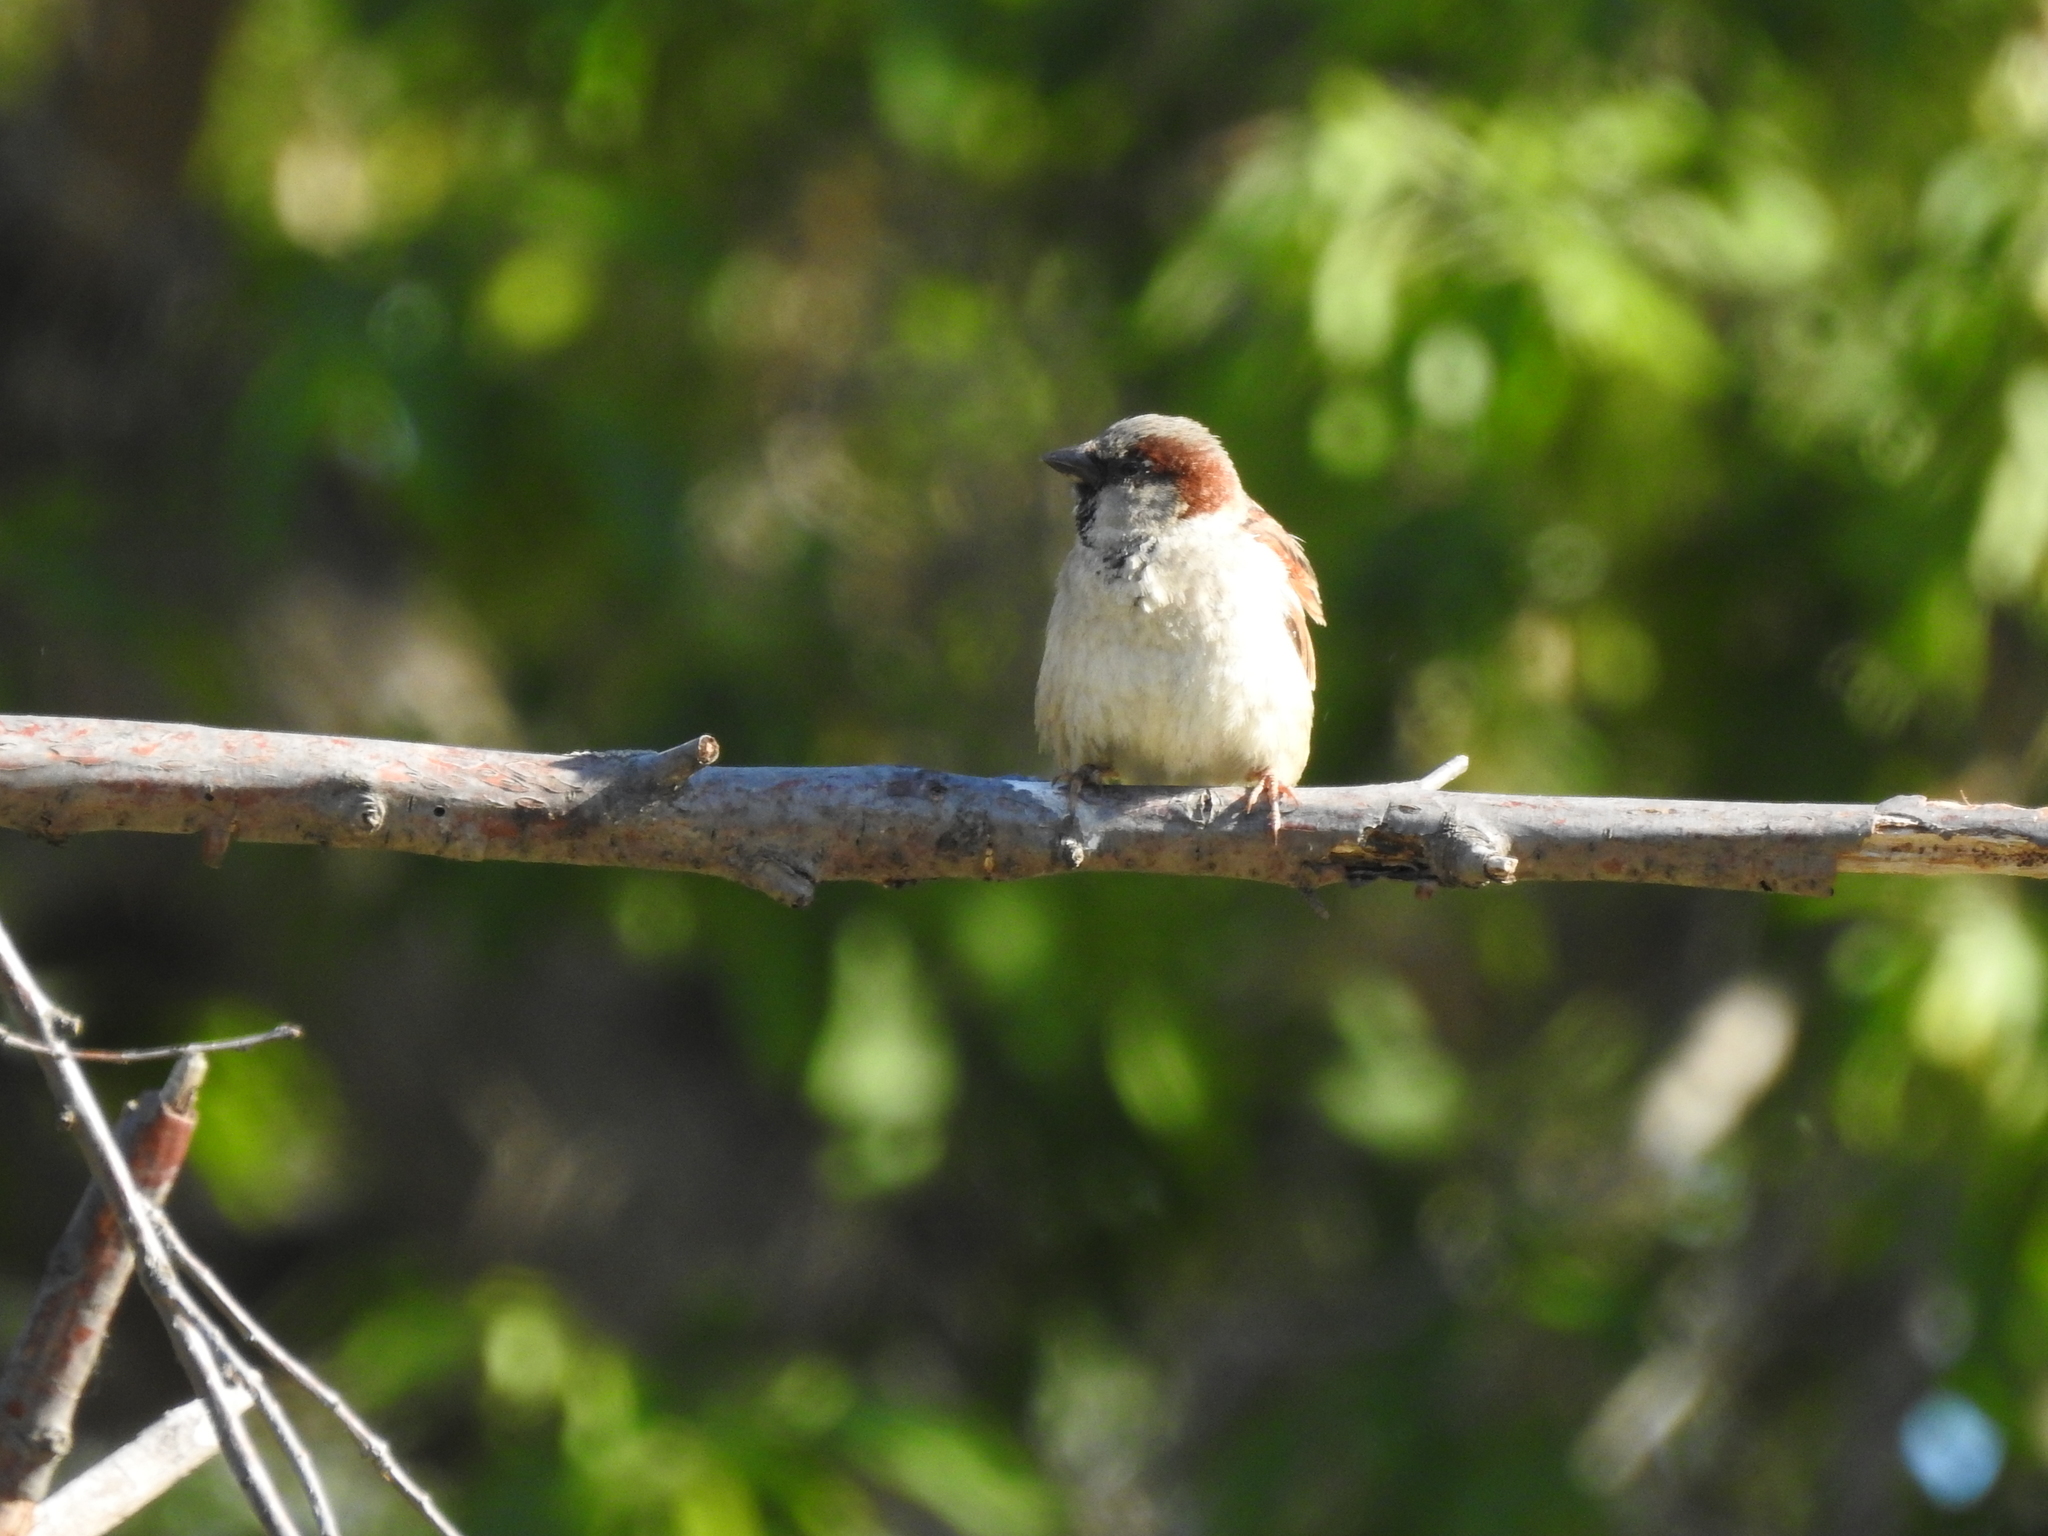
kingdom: Animalia
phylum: Chordata
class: Aves
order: Passeriformes
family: Passeridae
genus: Passer
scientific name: Passer domesticus
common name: House sparrow
